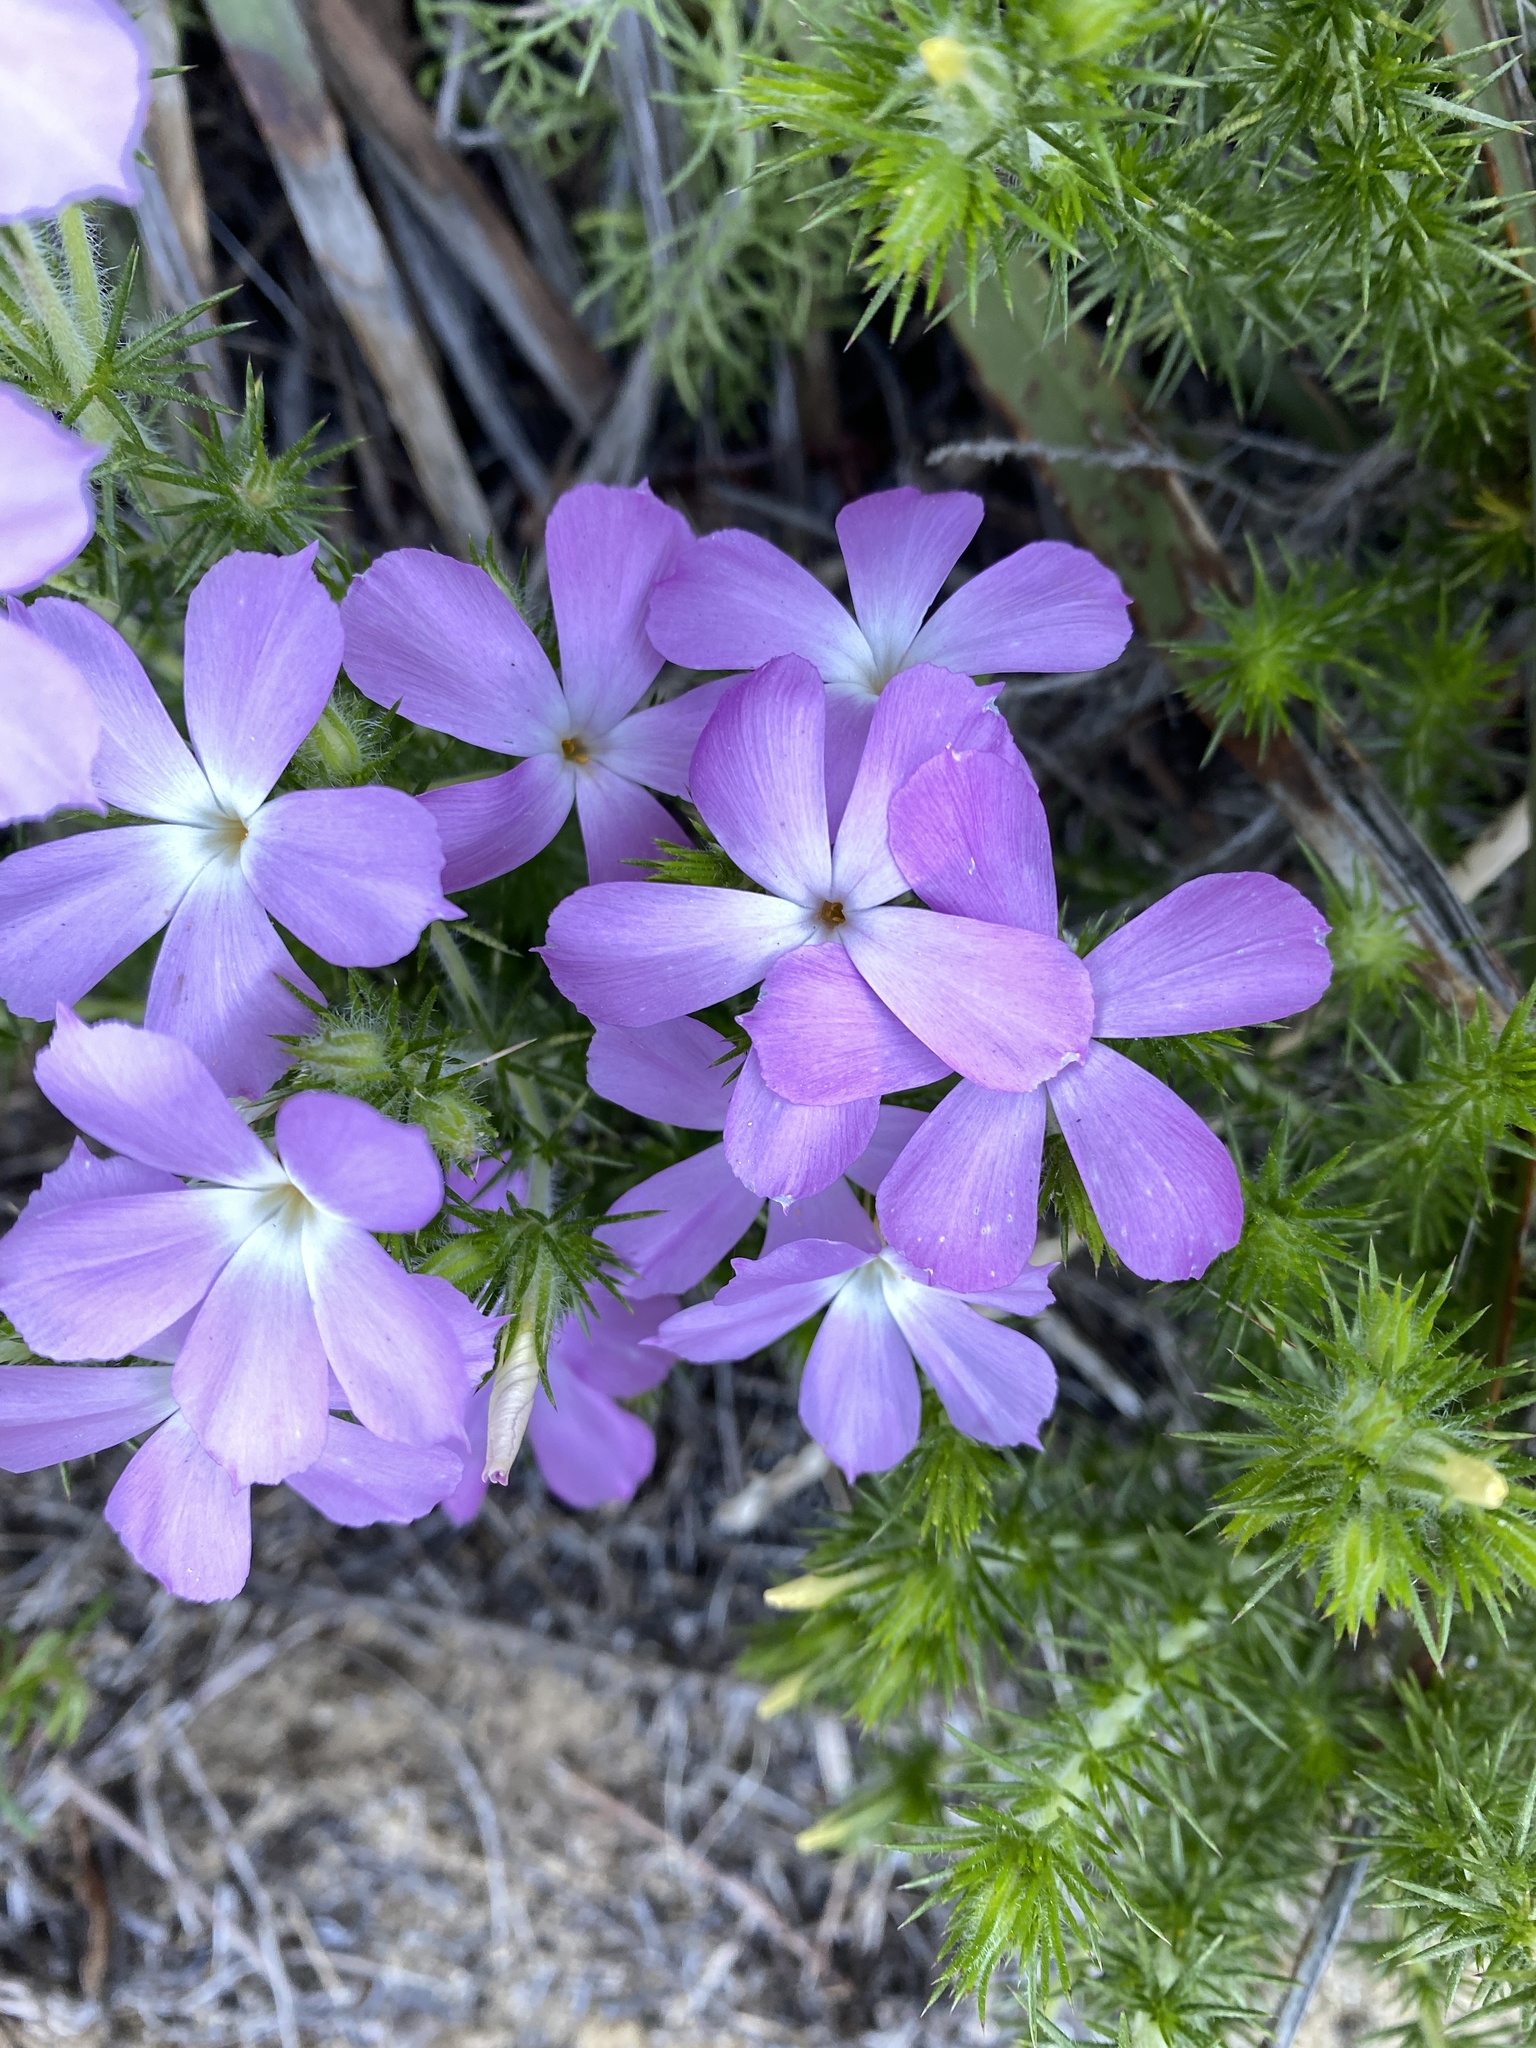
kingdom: Plantae
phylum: Tracheophyta
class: Magnoliopsida
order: Ericales
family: Polemoniaceae
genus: Linanthus
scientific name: Linanthus californicus
